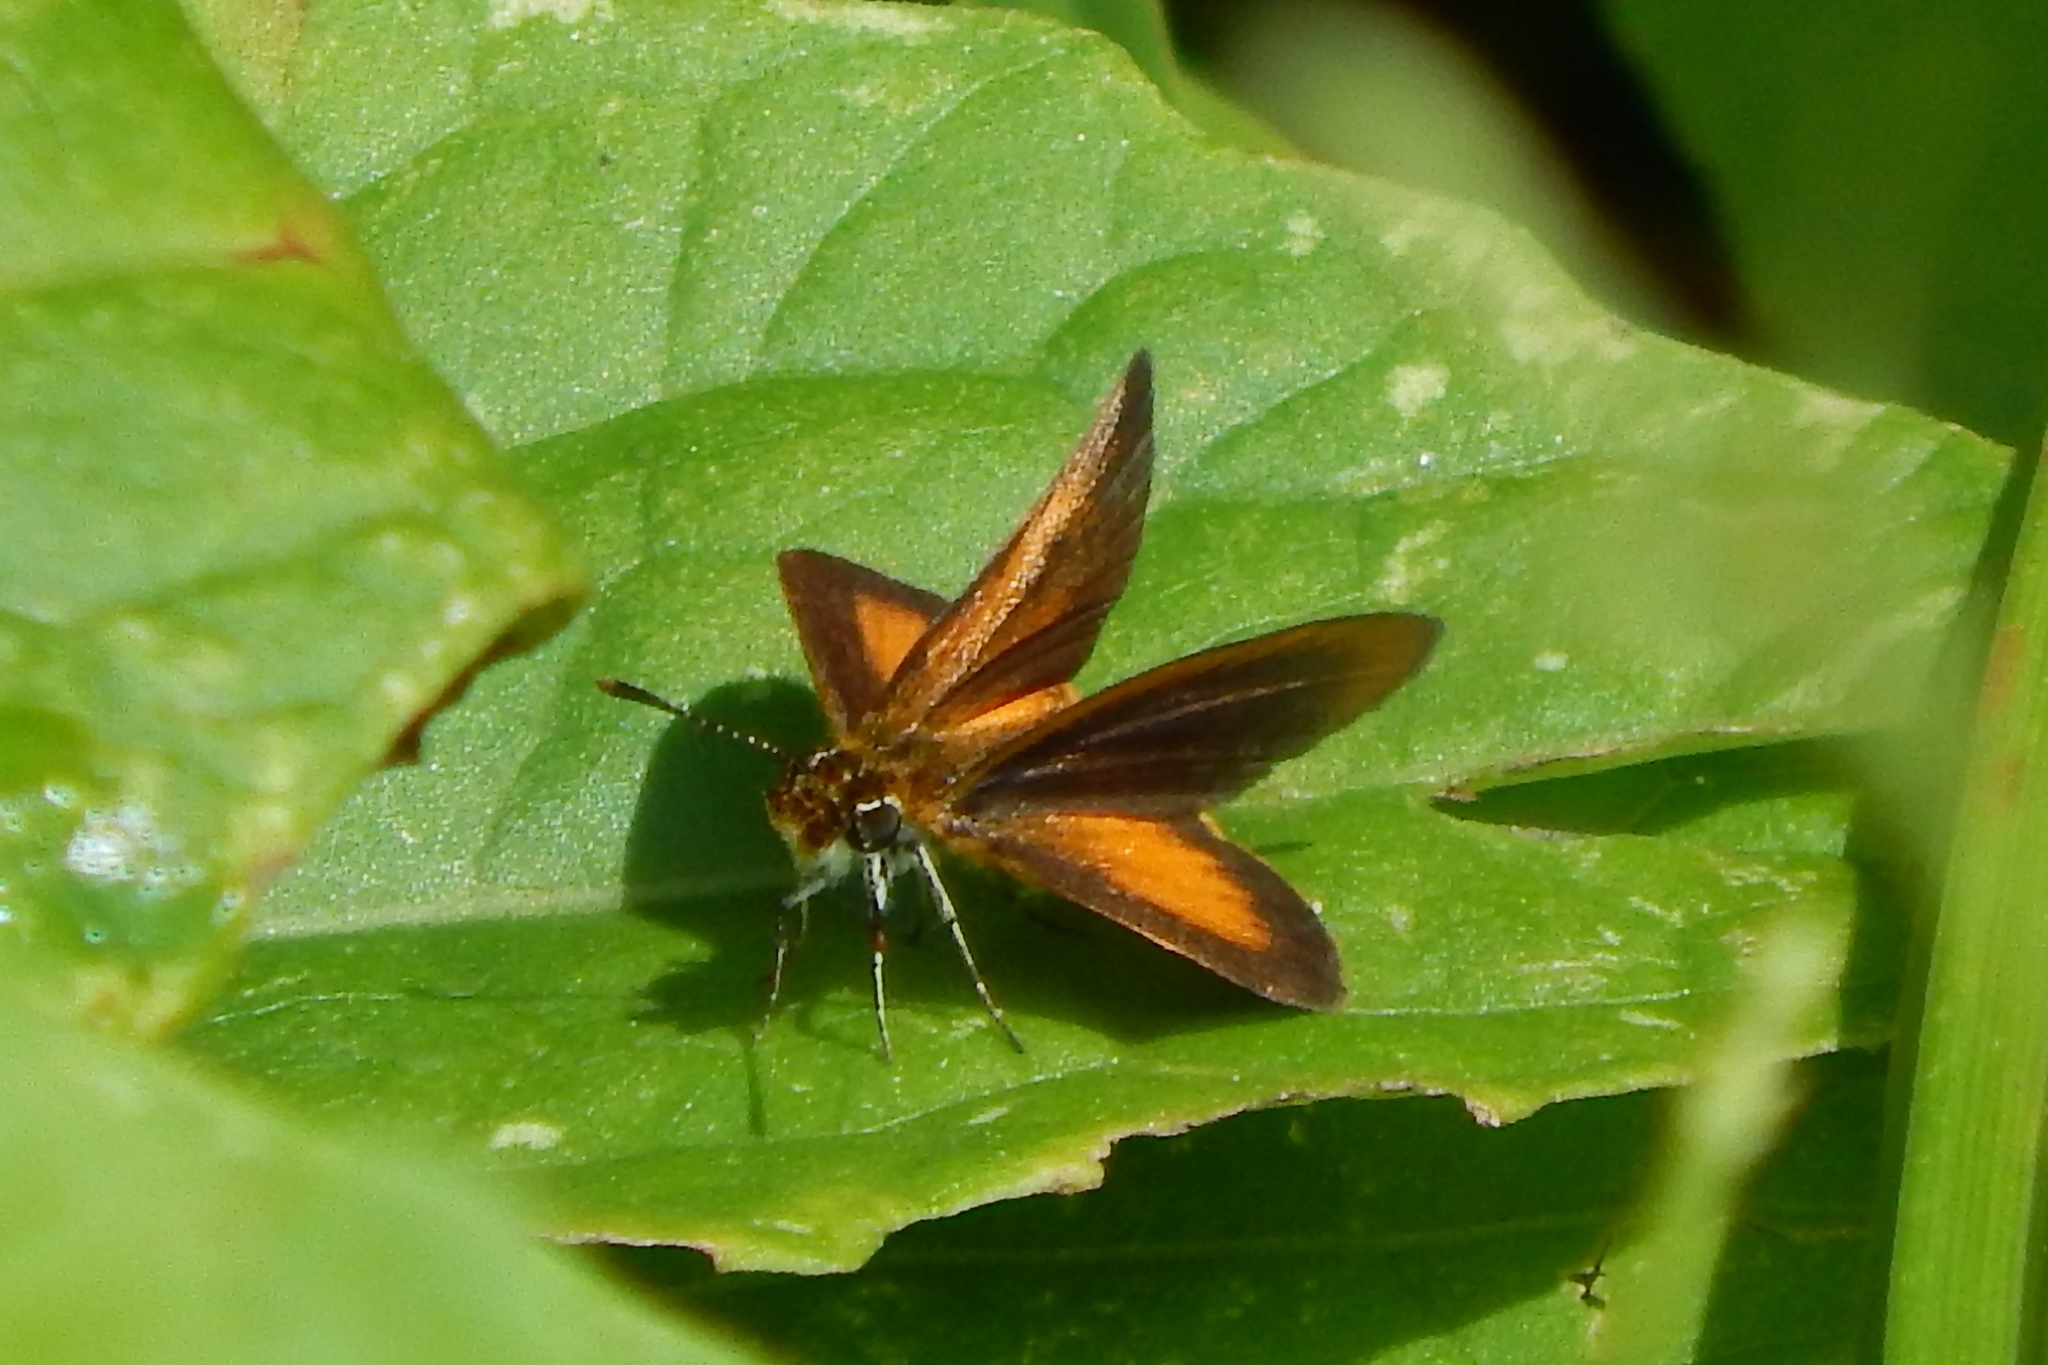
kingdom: Animalia
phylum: Arthropoda
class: Insecta
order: Lepidoptera
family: Hesperiidae
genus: Ancyloxypha
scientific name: Ancyloxypha numitor
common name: Least skipper
